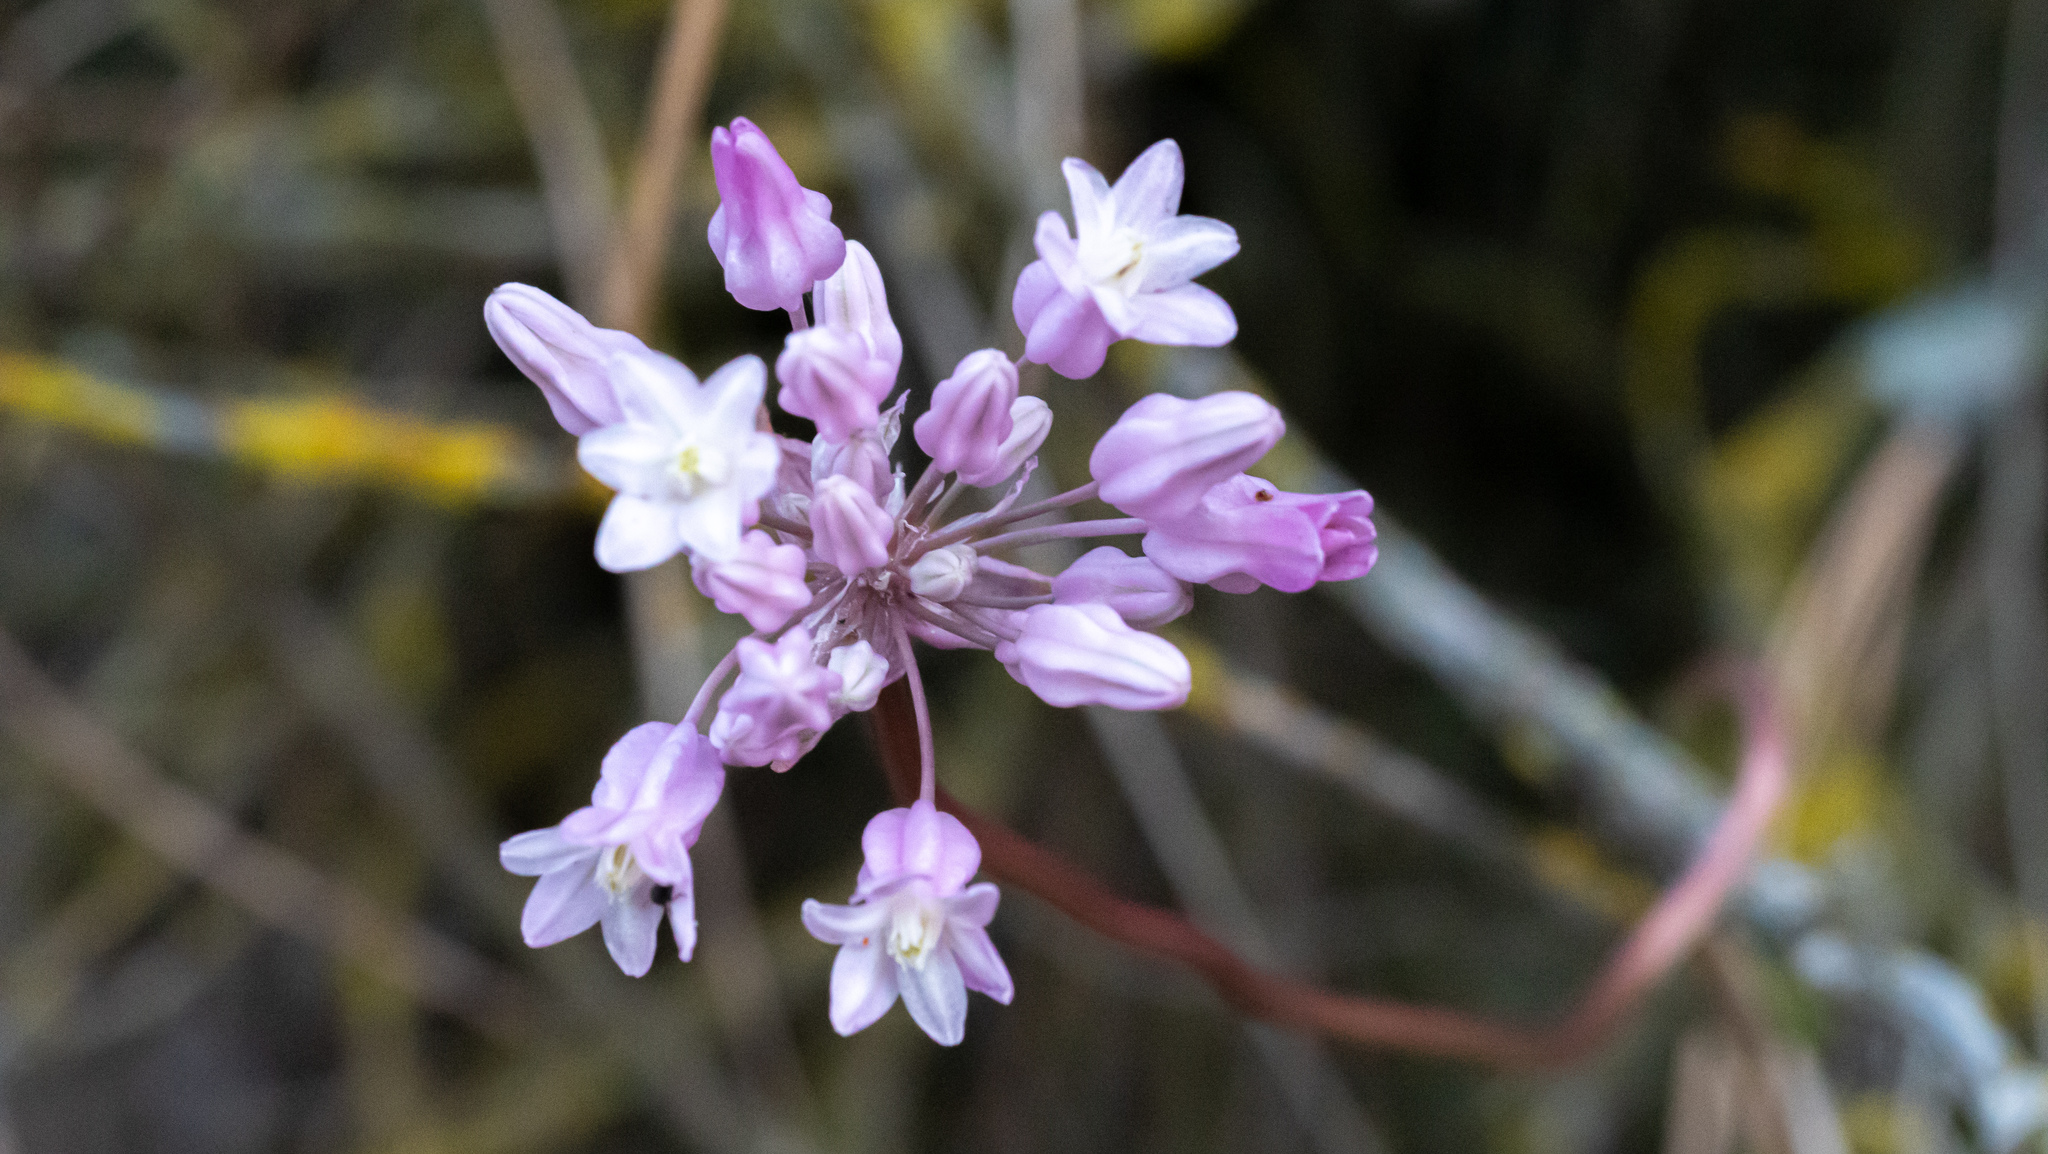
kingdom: Plantae
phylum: Tracheophyta
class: Liliopsida
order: Asparagales
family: Asparagaceae
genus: Dichelostemma
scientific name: Dichelostemma volubile
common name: Trining brodiaea
